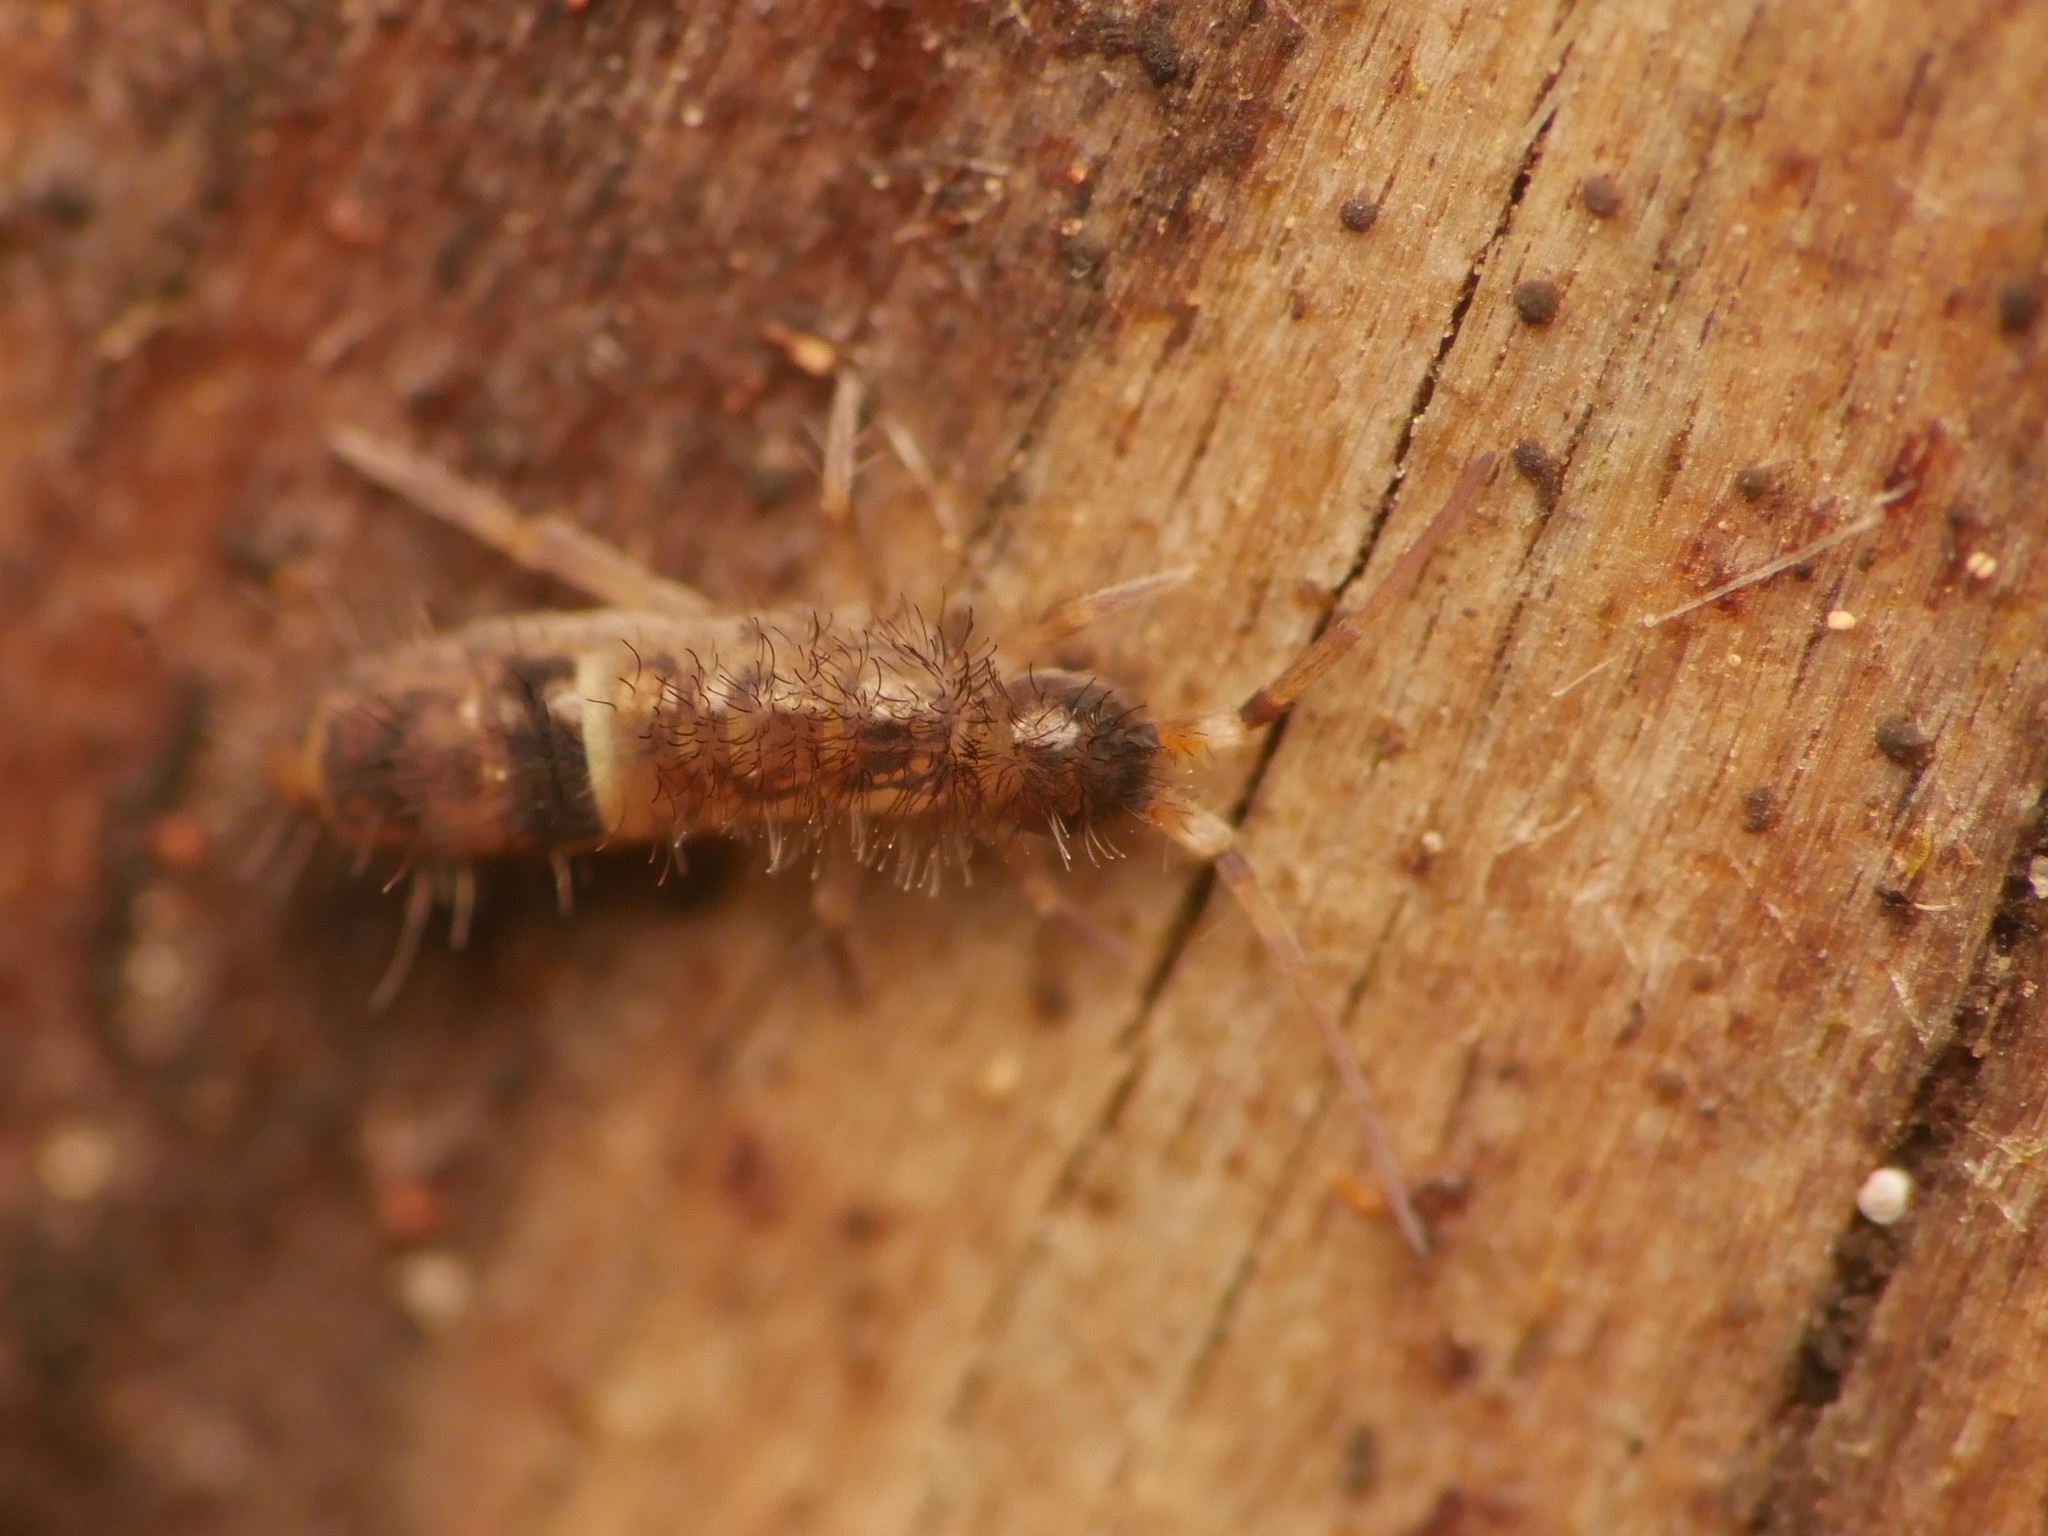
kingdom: Animalia
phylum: Arthropoda
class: Collembola
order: Entomobryomorpha
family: Orchesellidae
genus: Orchesella
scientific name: Orchesella cincta
